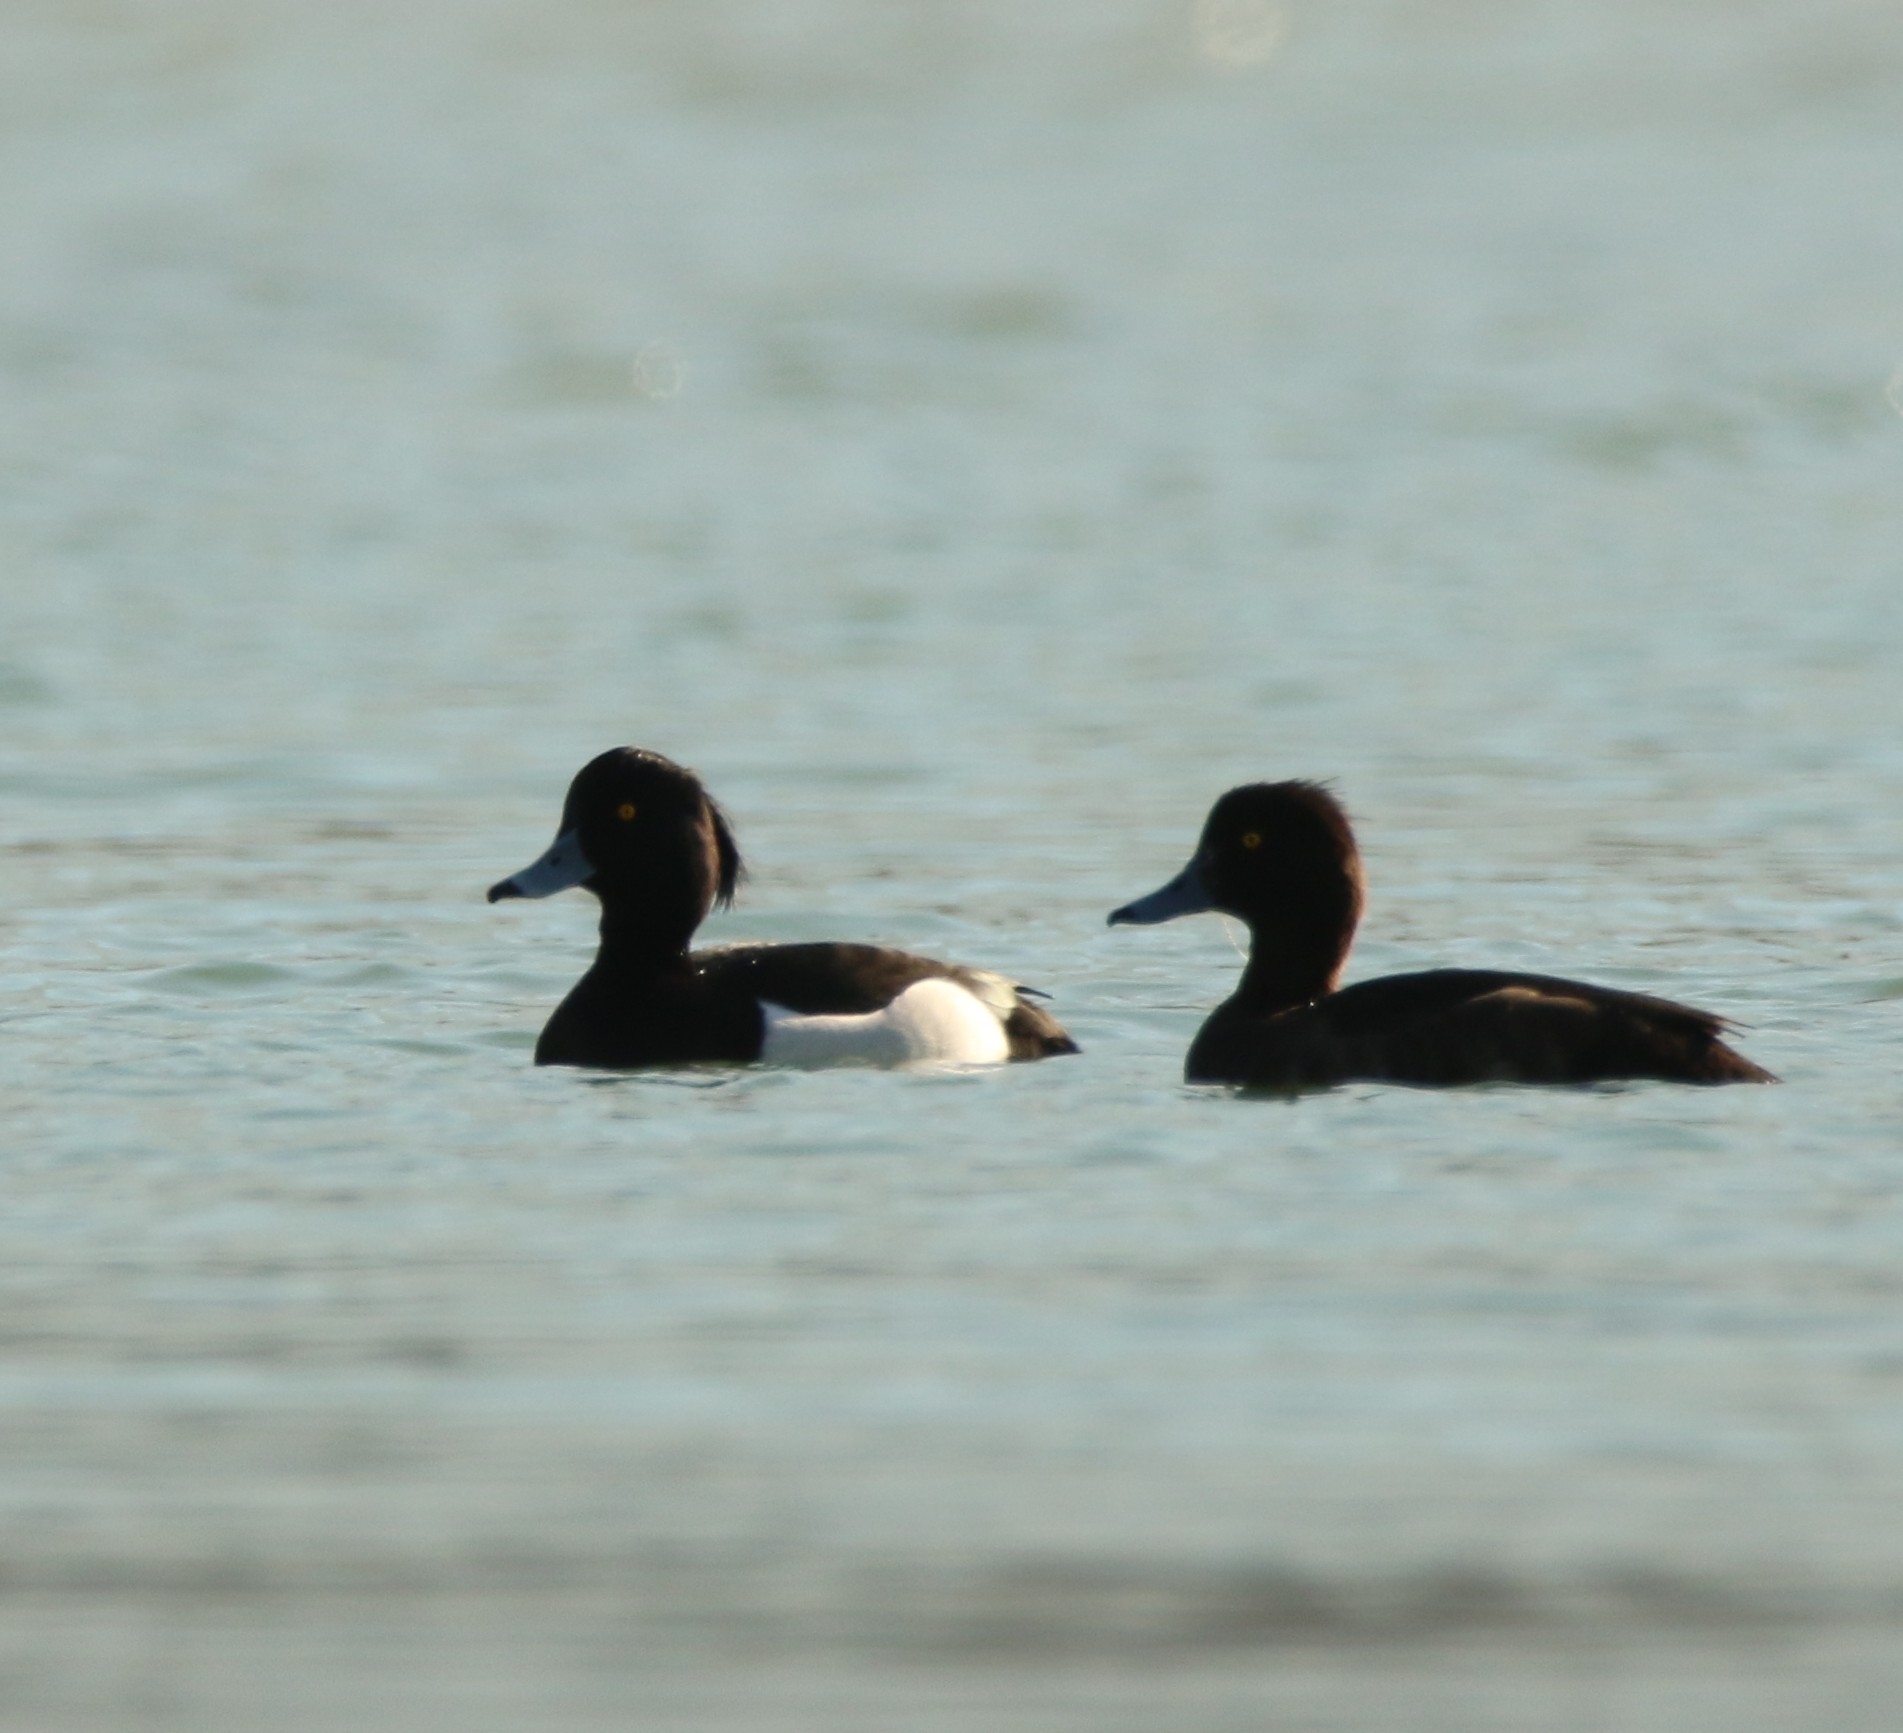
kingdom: Animalia
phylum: Chordata
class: Aves
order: Anseriformes
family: Anatidae
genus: Aythya
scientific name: Aythya fuligula
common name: Tufted duck
